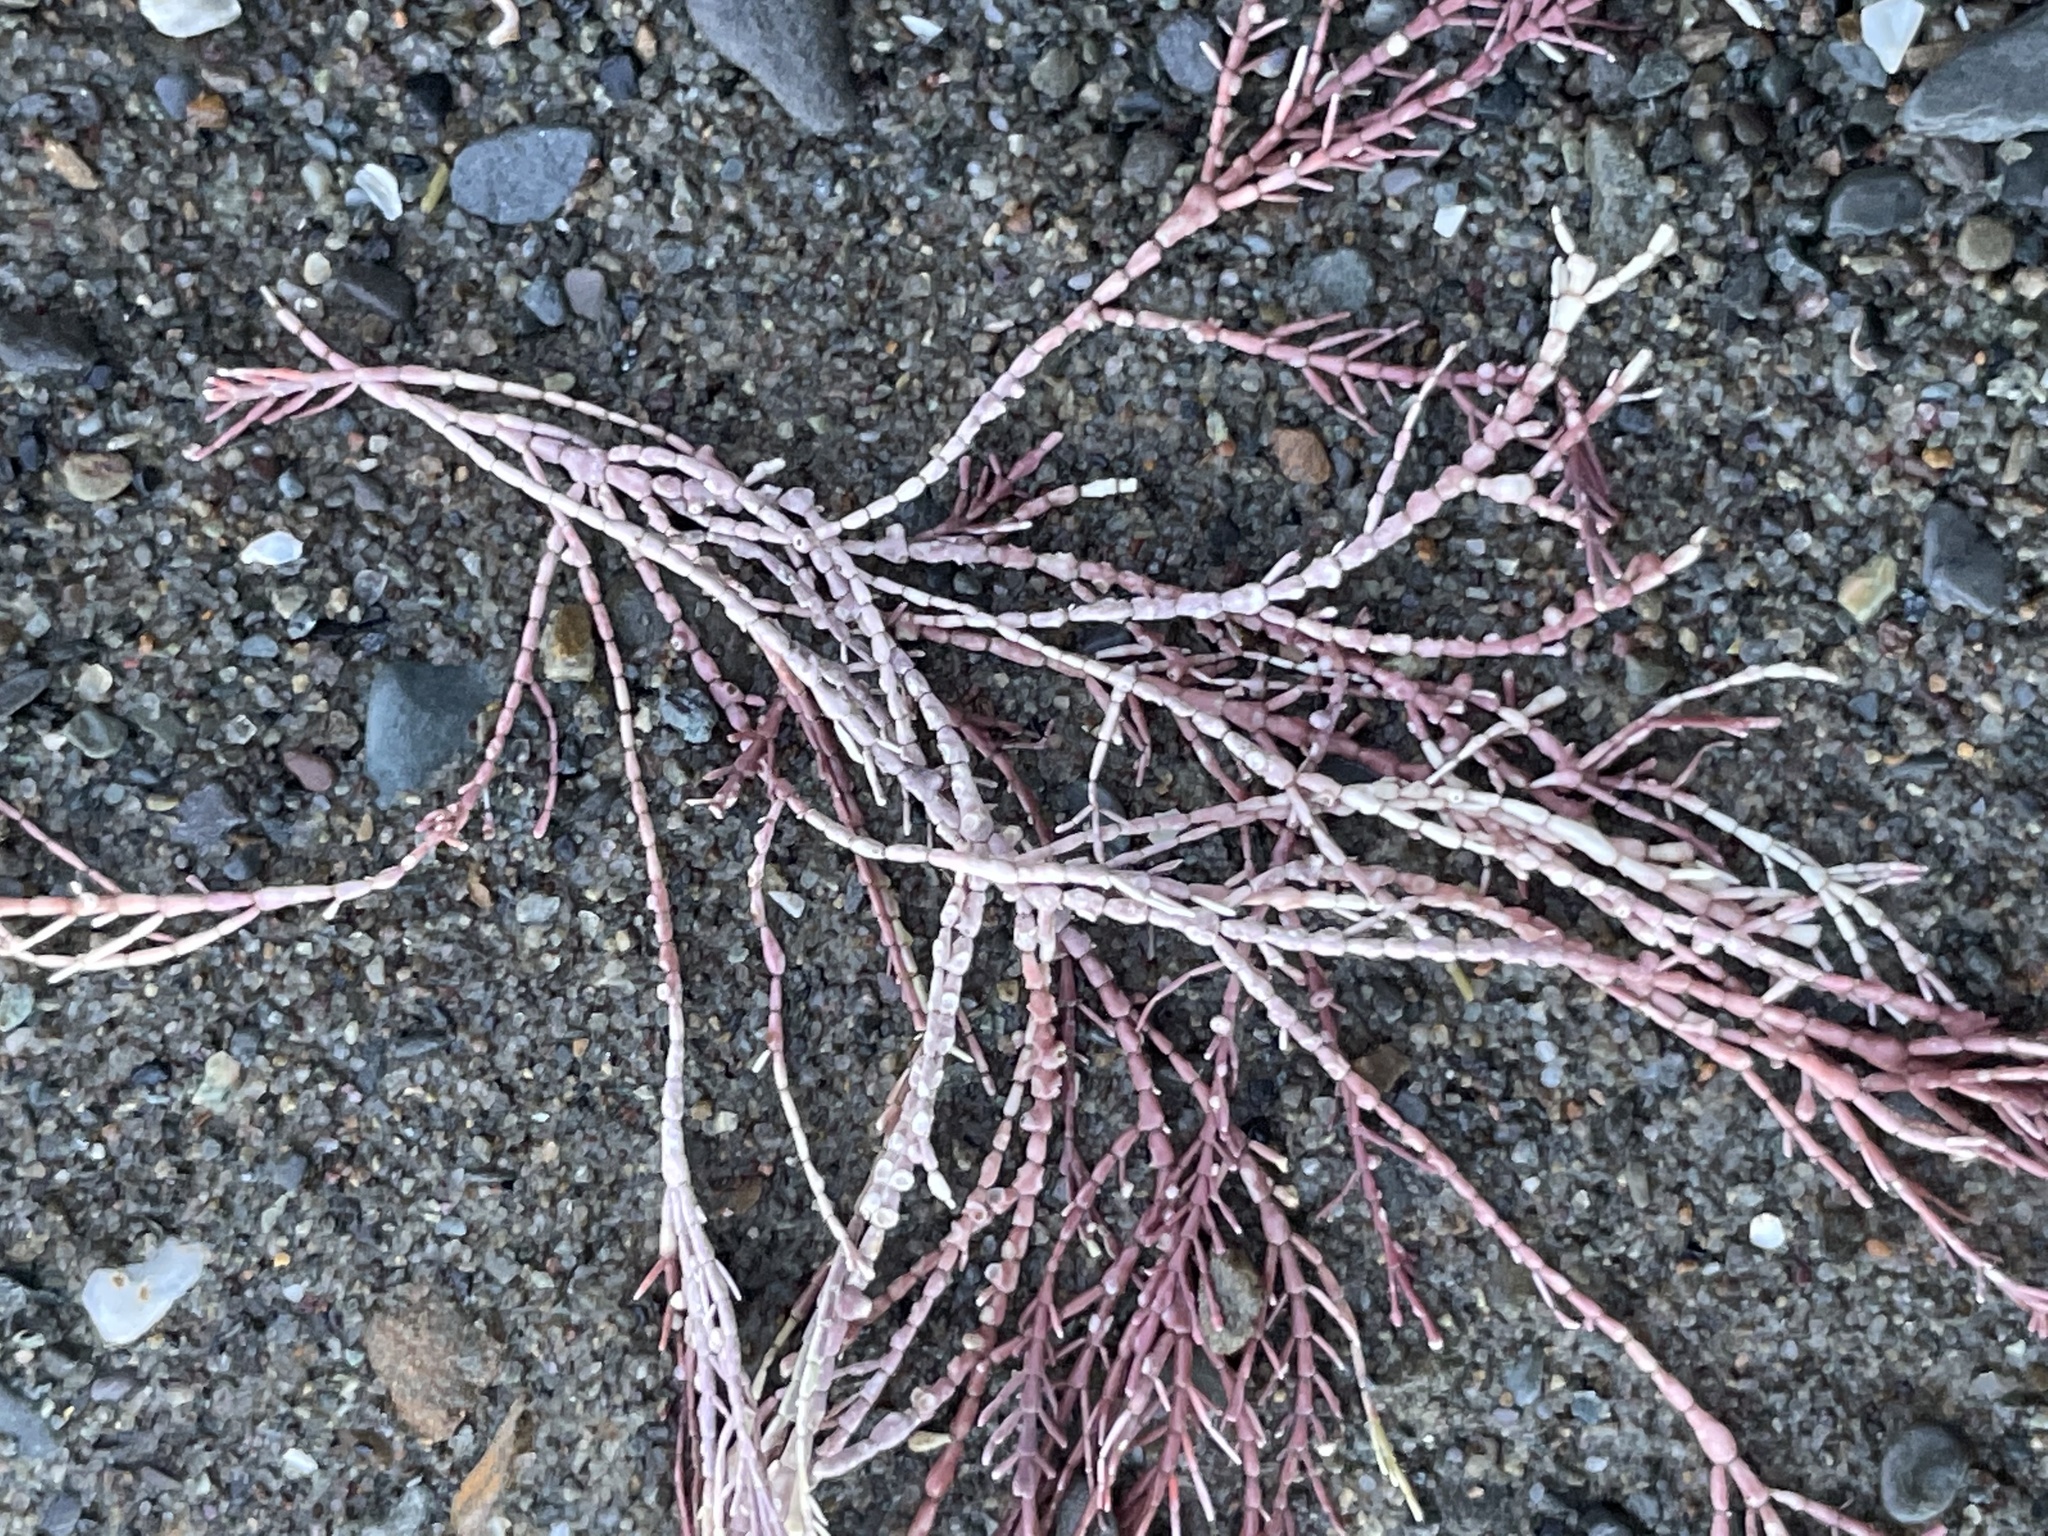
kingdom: Plantae
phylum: Rhodophyta
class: Florideophyceae
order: Corallinales
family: Corallinaceae
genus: Corallina
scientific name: Corallina officinalis
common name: Coral weed
